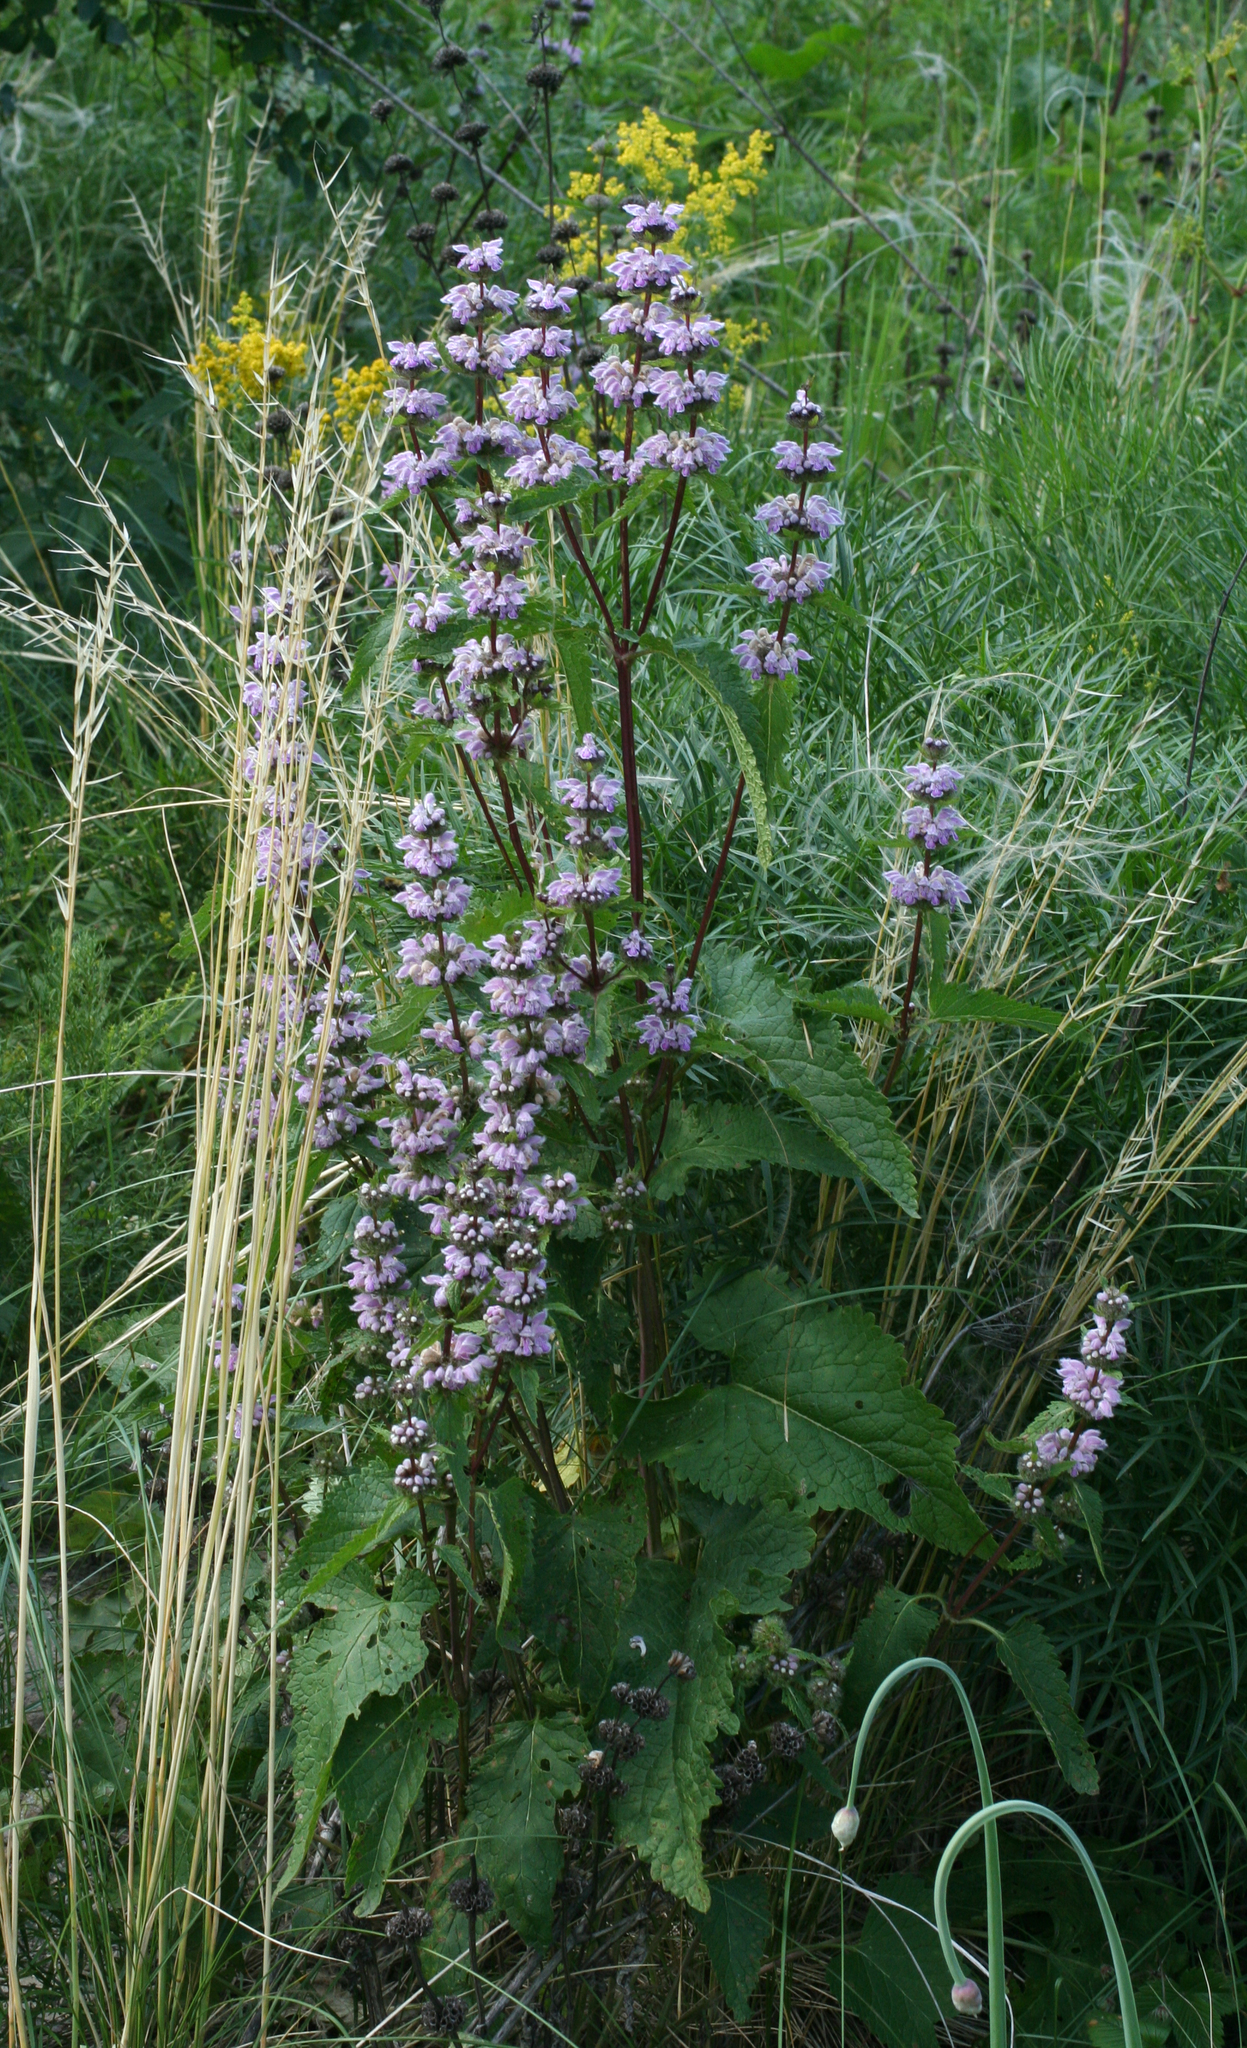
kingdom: Plantae
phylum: Tracheophyta
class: Magnoliopsida
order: Lamiales
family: Lamiaceae
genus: Phlomoides
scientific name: Phlomoides tuberosa
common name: Tuberous jerusalem sage
